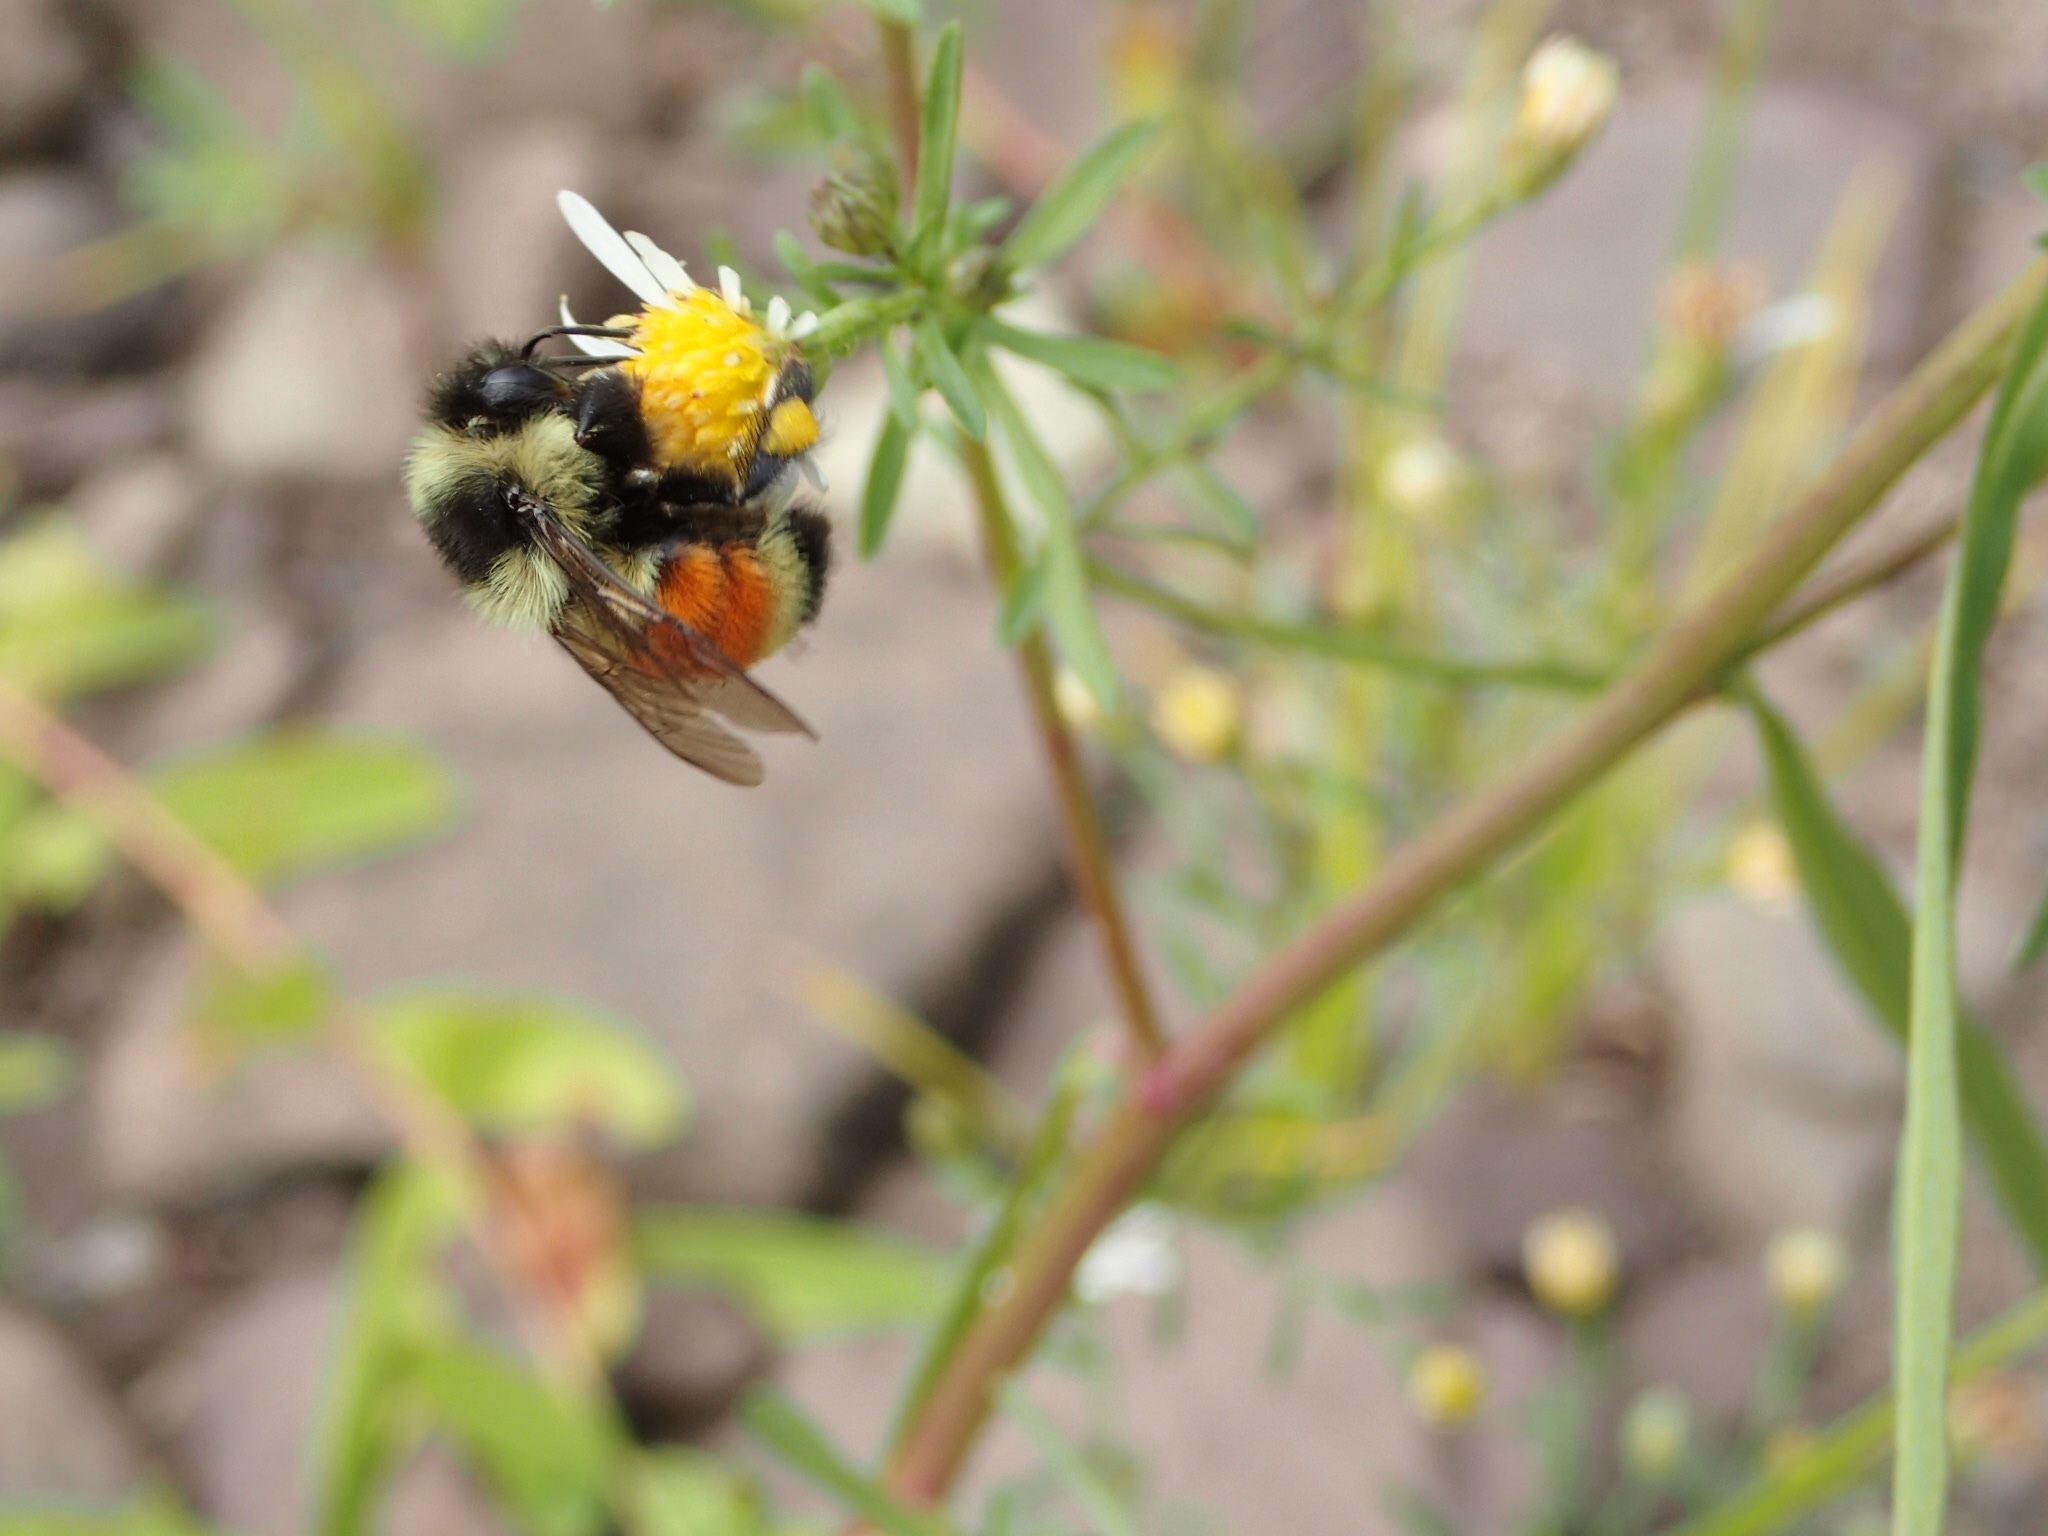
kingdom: Animalia
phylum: Arthropoda
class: Insecta
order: Hymenoptera
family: Apidae
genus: Bombus
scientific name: Bombus ternarius
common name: Tri-colored bumble bee
